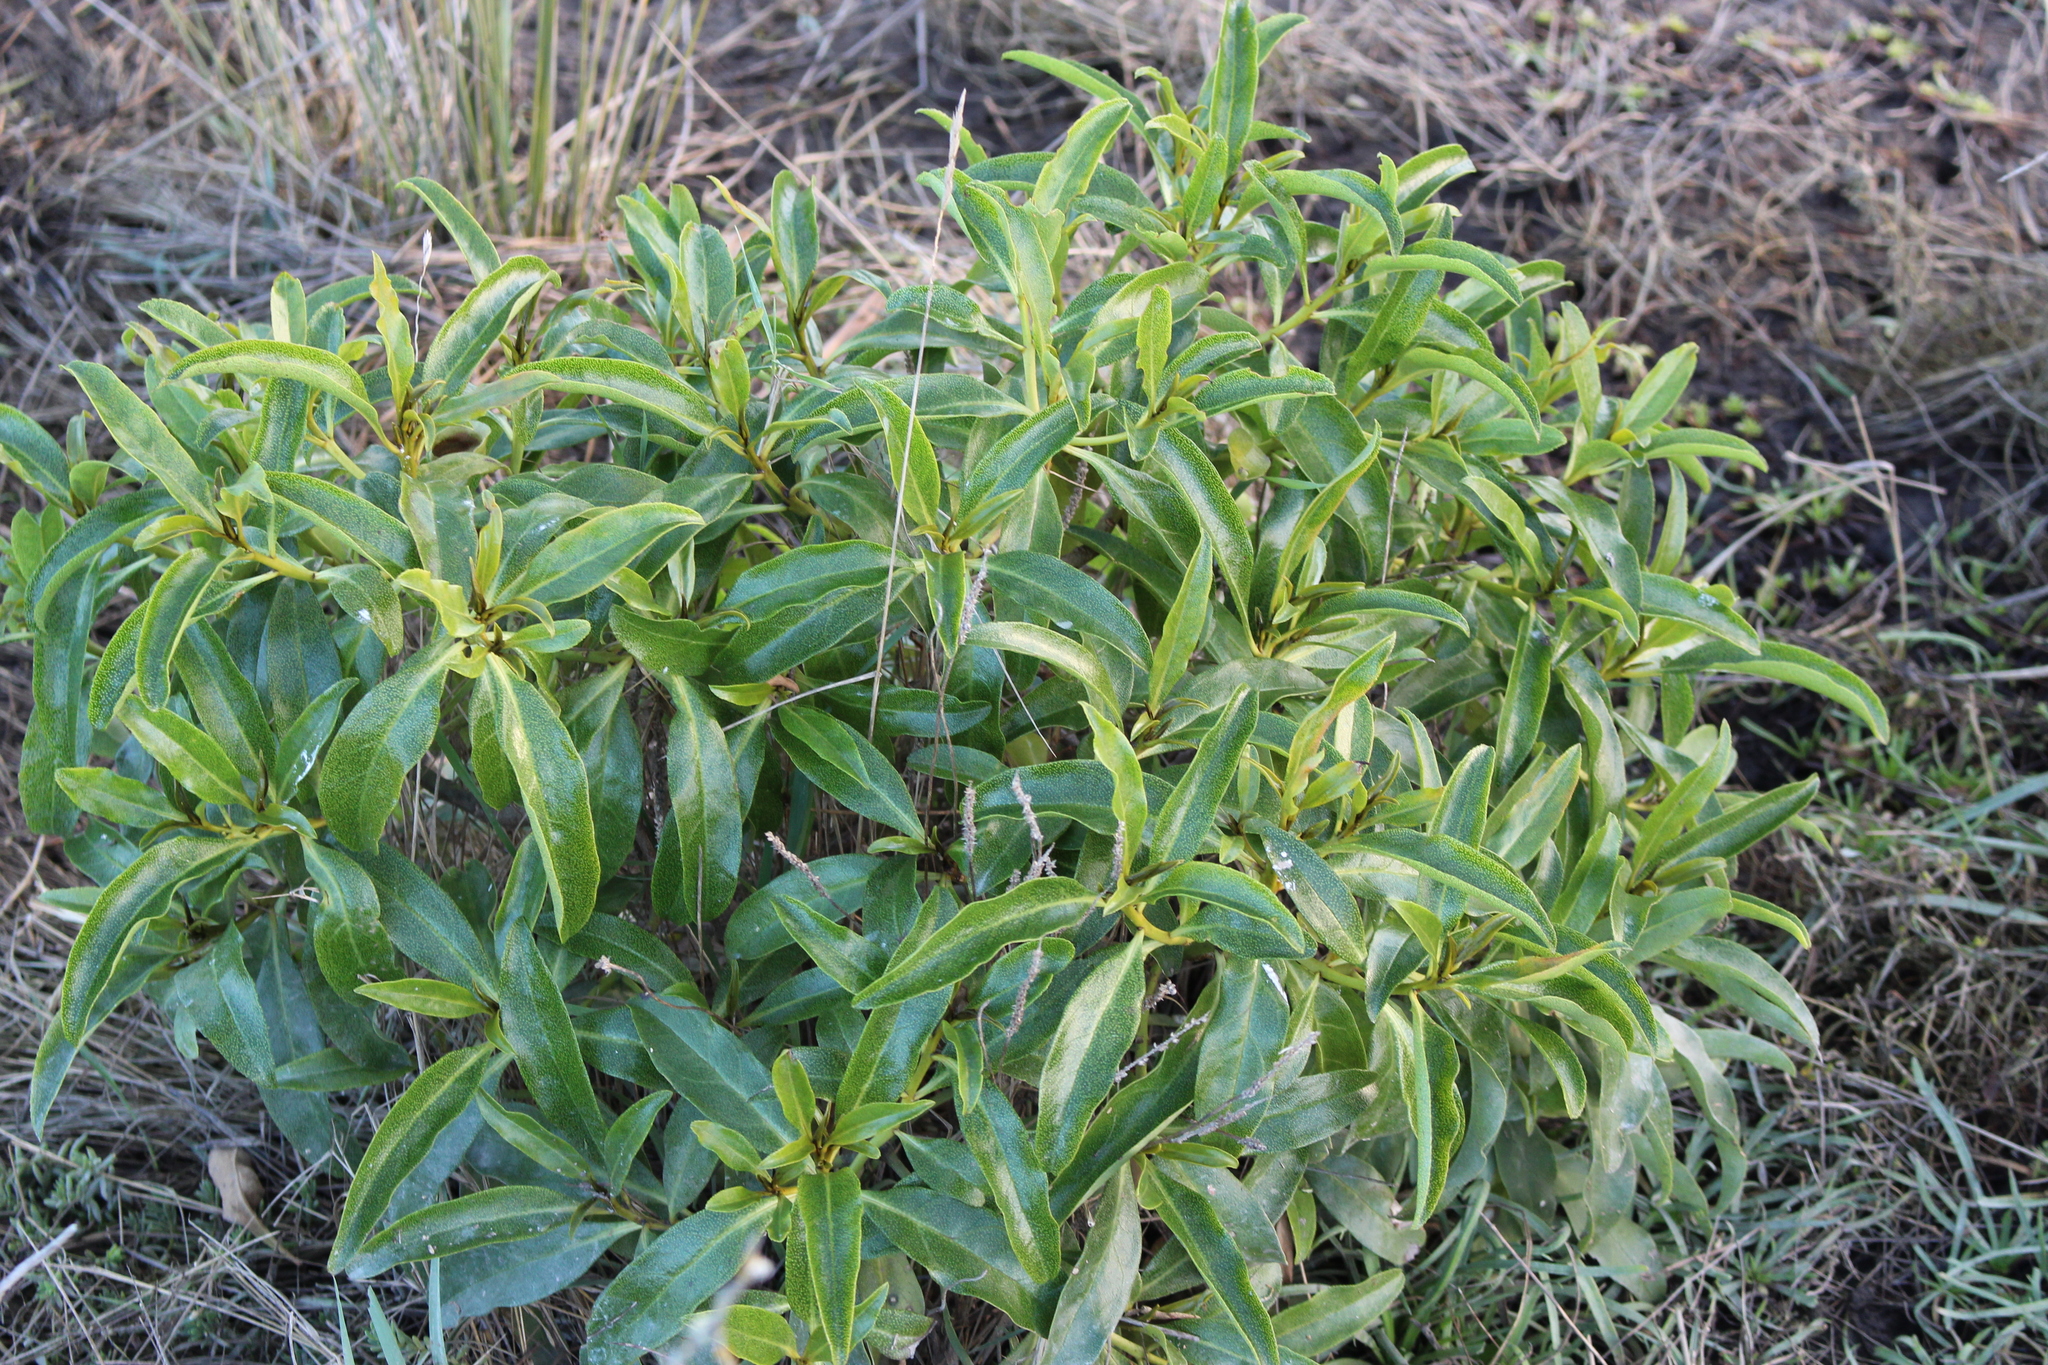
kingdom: Plantae
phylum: Tracheophyta
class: Magnoliopsida
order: Lamiales
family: Scrophulariaceae
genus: Myoporum
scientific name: Myoporum laetum
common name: Ngaio tree
